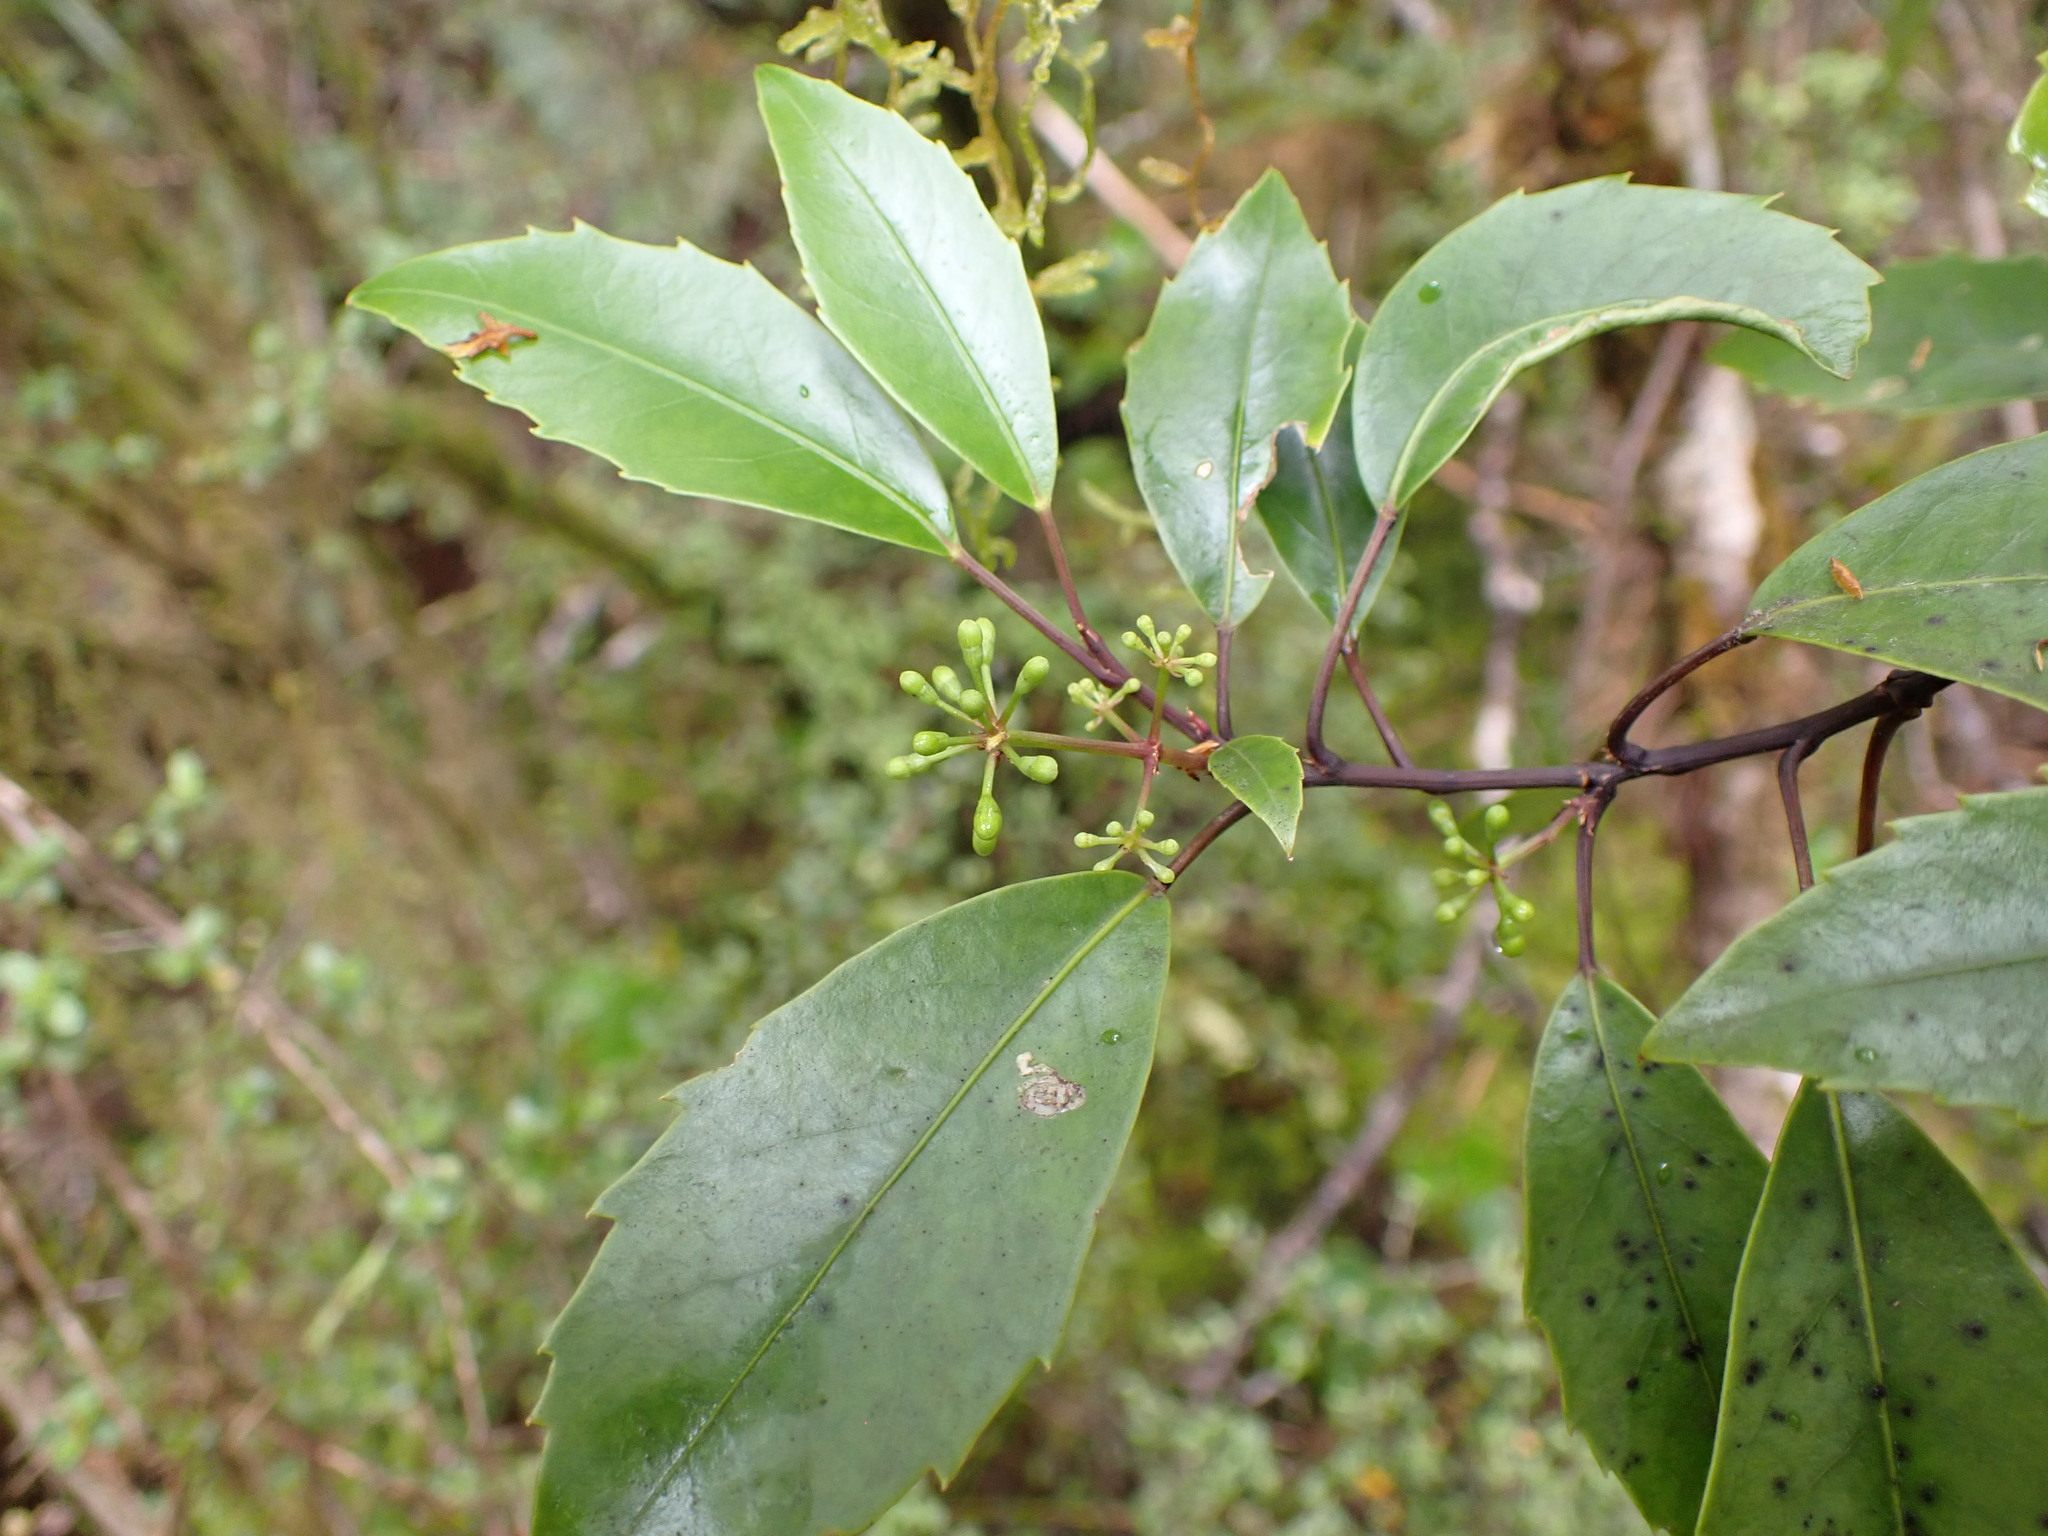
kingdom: Plantae
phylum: Tracheophyta
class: Magnoliopsida
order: Apiales
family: Araliaceae
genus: Raukaua
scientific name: Raukaua simplex
